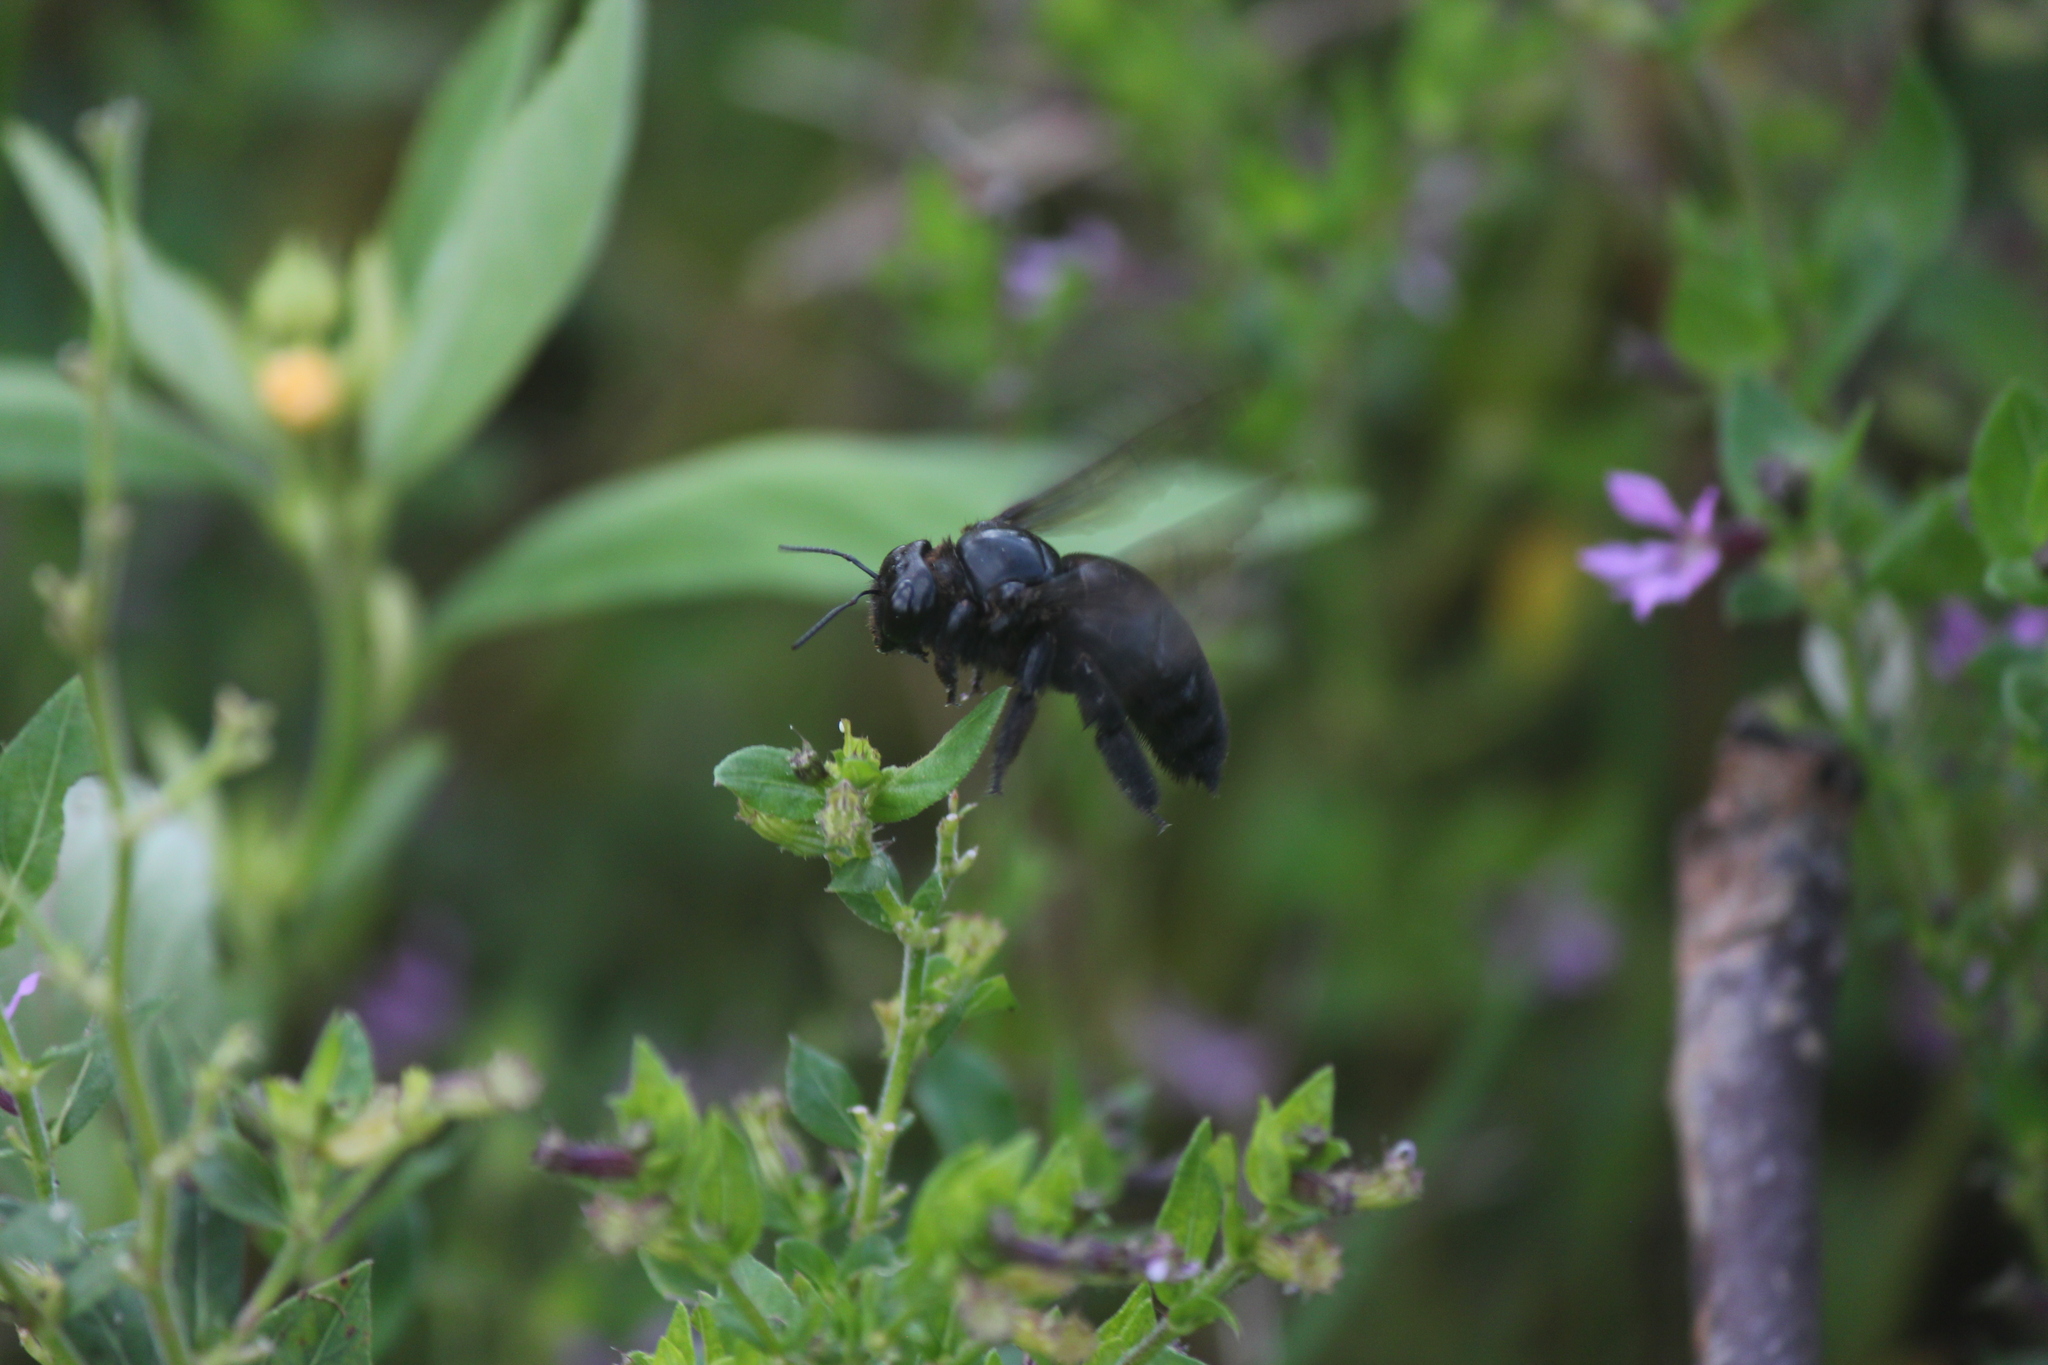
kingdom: Animalia
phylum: Arthropoda
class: Insecta
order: Hymenoptera
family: Apidae
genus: Xylocopa
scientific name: Xylocopa darwini
